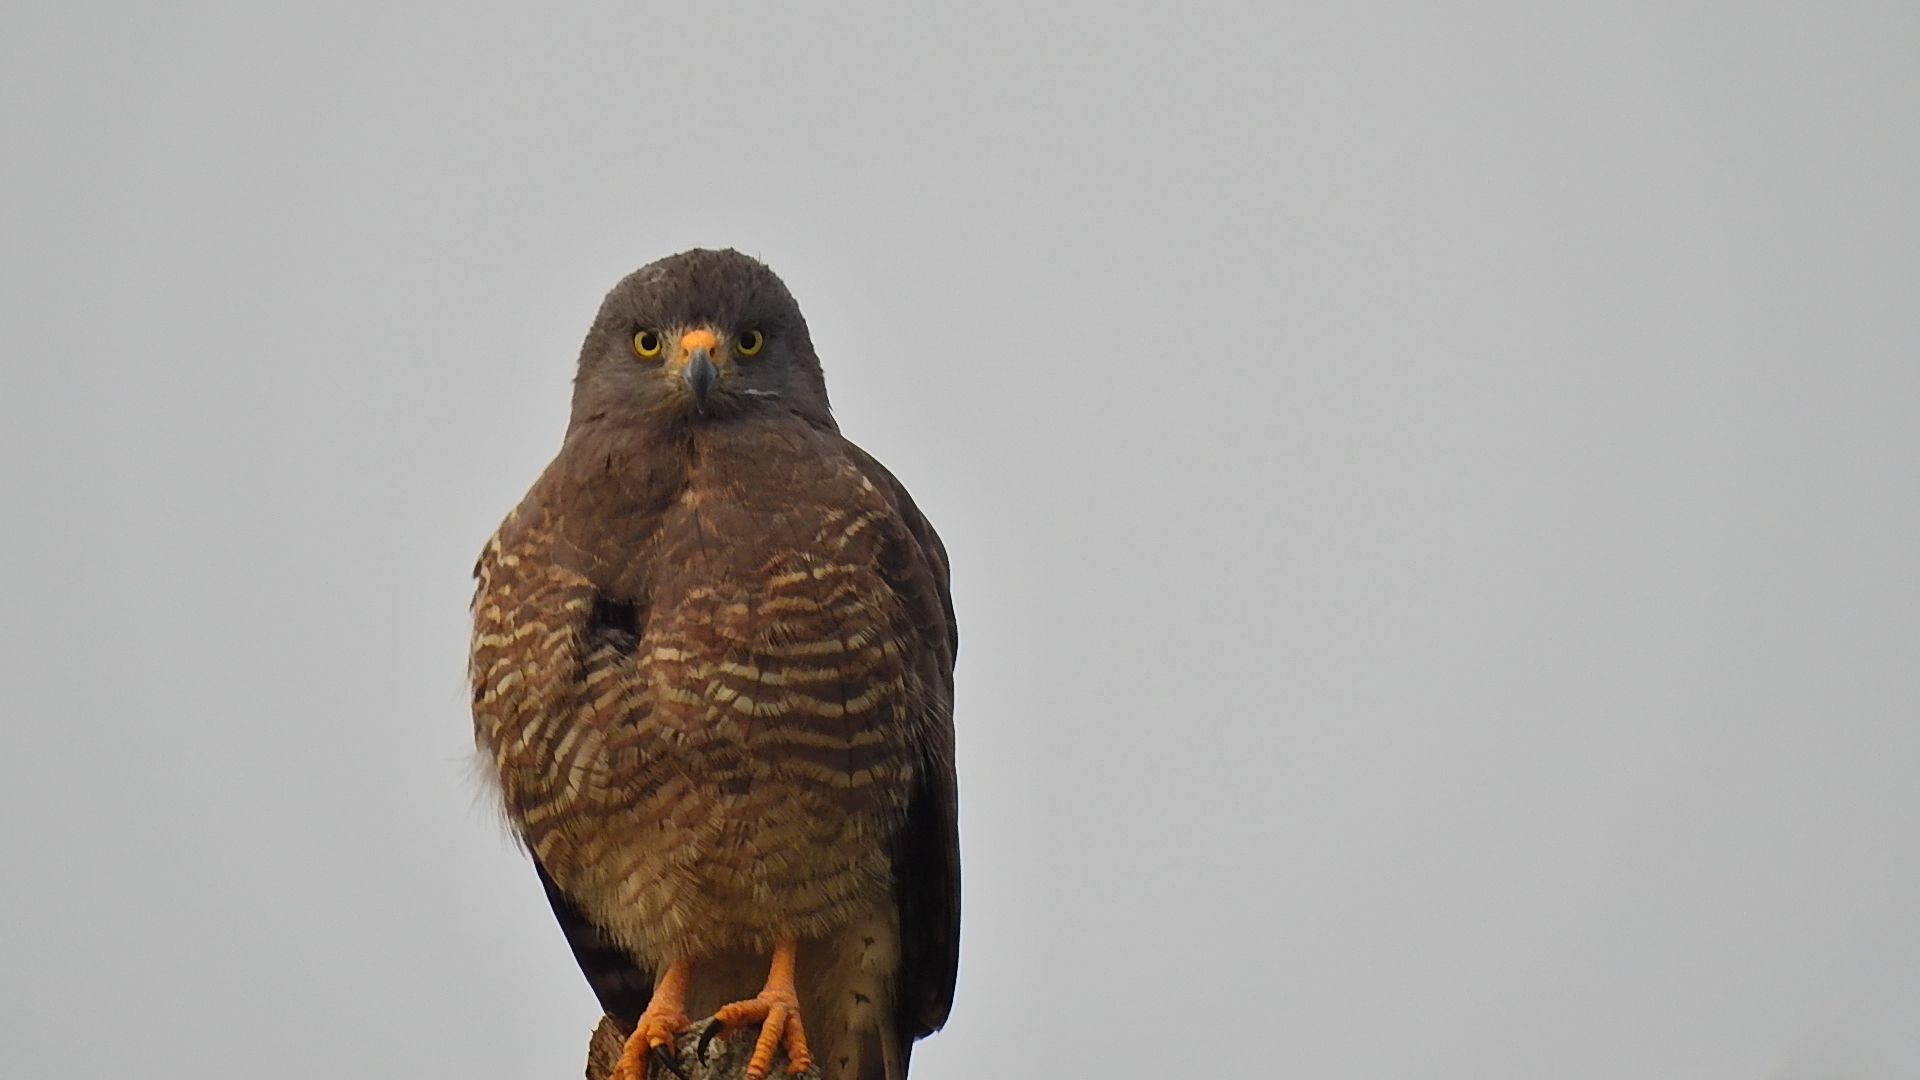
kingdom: Animalia
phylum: Chordata
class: Aves
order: Accipitriformes
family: Accipitridae
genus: Rupornis
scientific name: Rupornis magnirostris
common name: Roadside hawk
